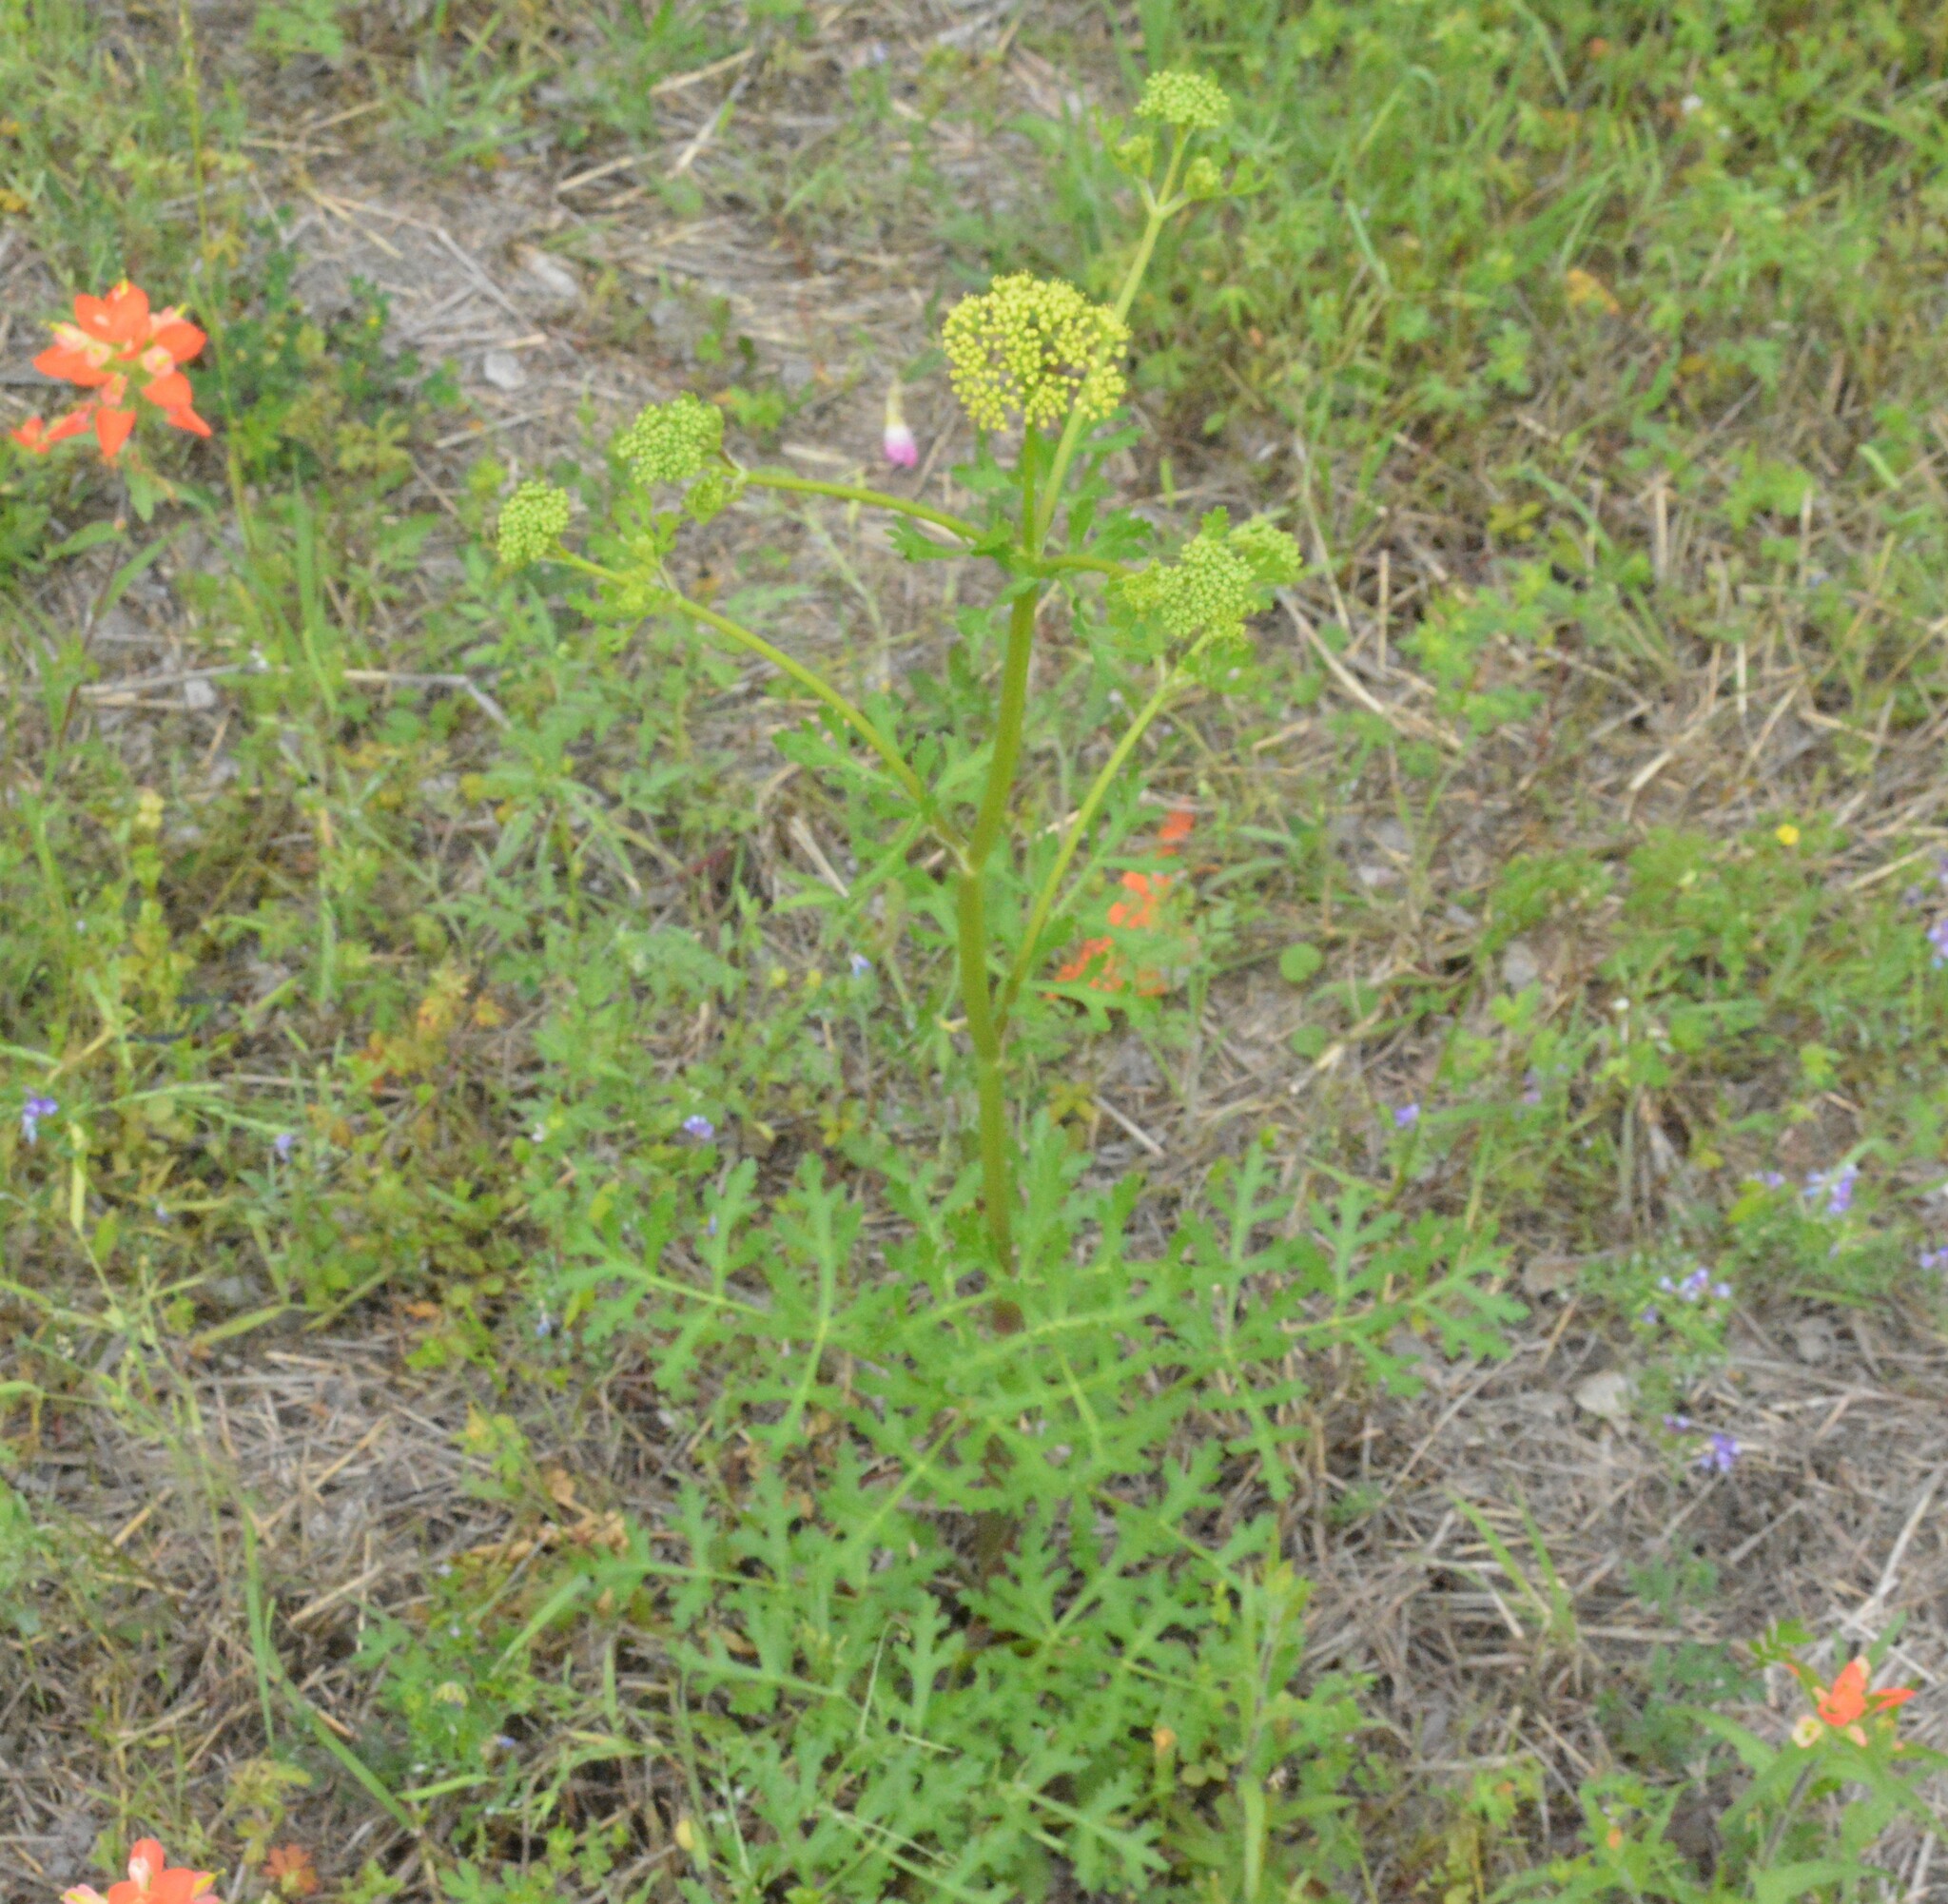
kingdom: Plantae
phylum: Tracheophyta
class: Magnoliopsida
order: Apiales
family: Apiaceae
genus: Polytaenia
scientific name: Polytaenia texana
